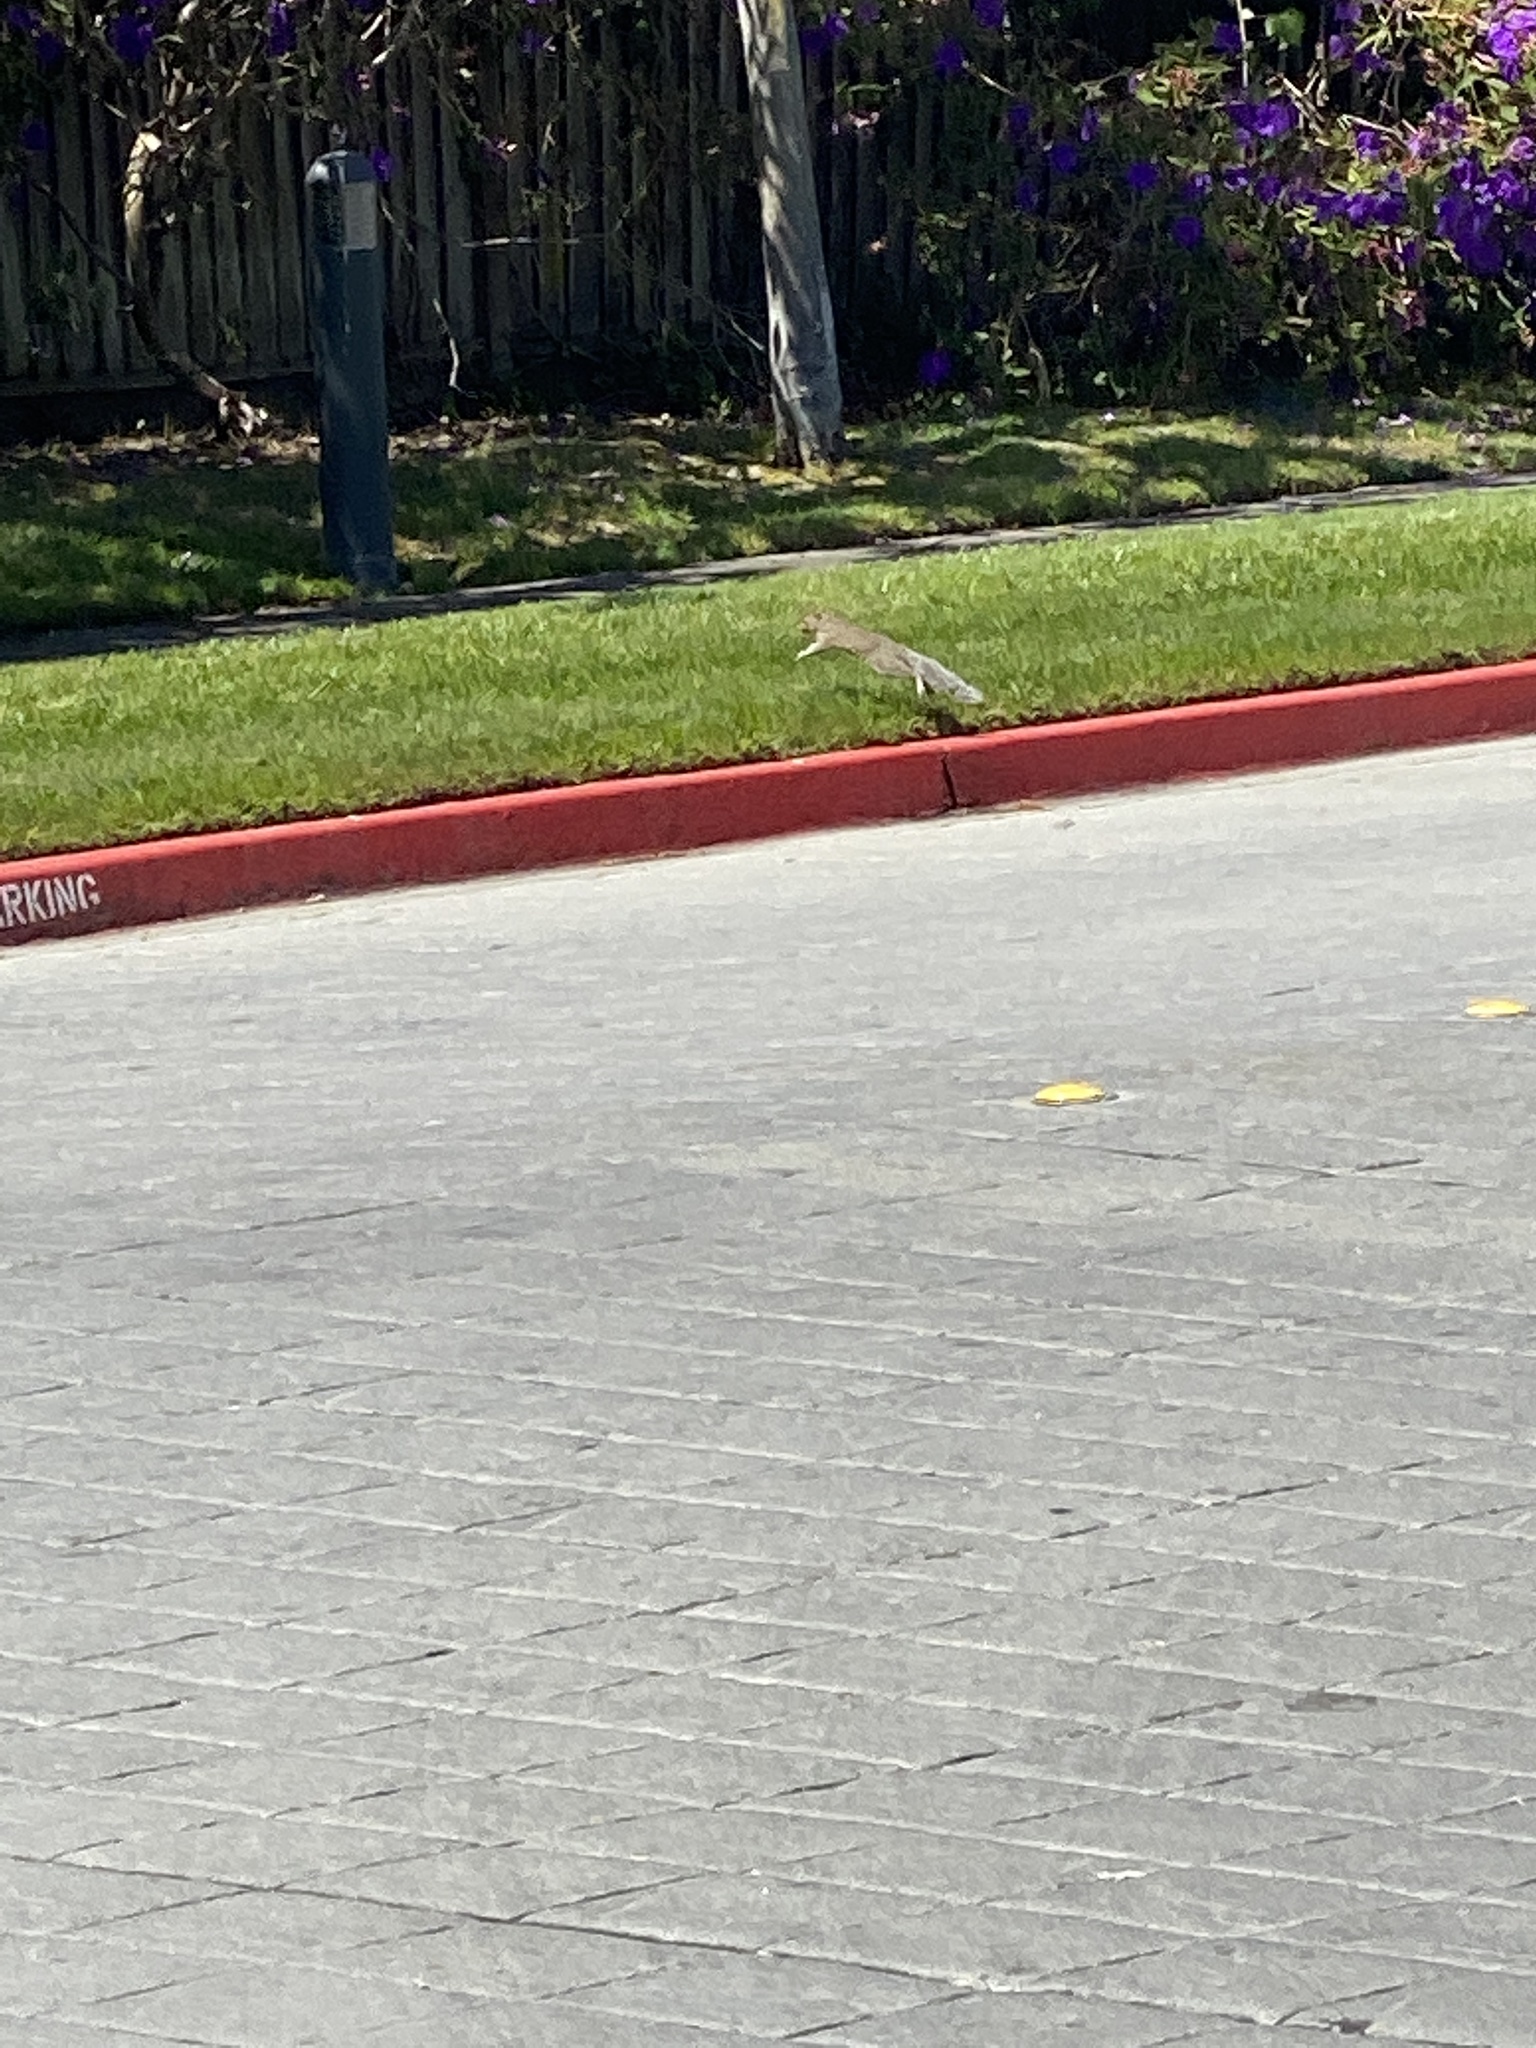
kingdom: Animalia
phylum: Chordata
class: Mammalia
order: Rodentia
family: Sciuridae
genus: Sciurus
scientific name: Sciurus carolinensis
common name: Eastern gray squirrel
